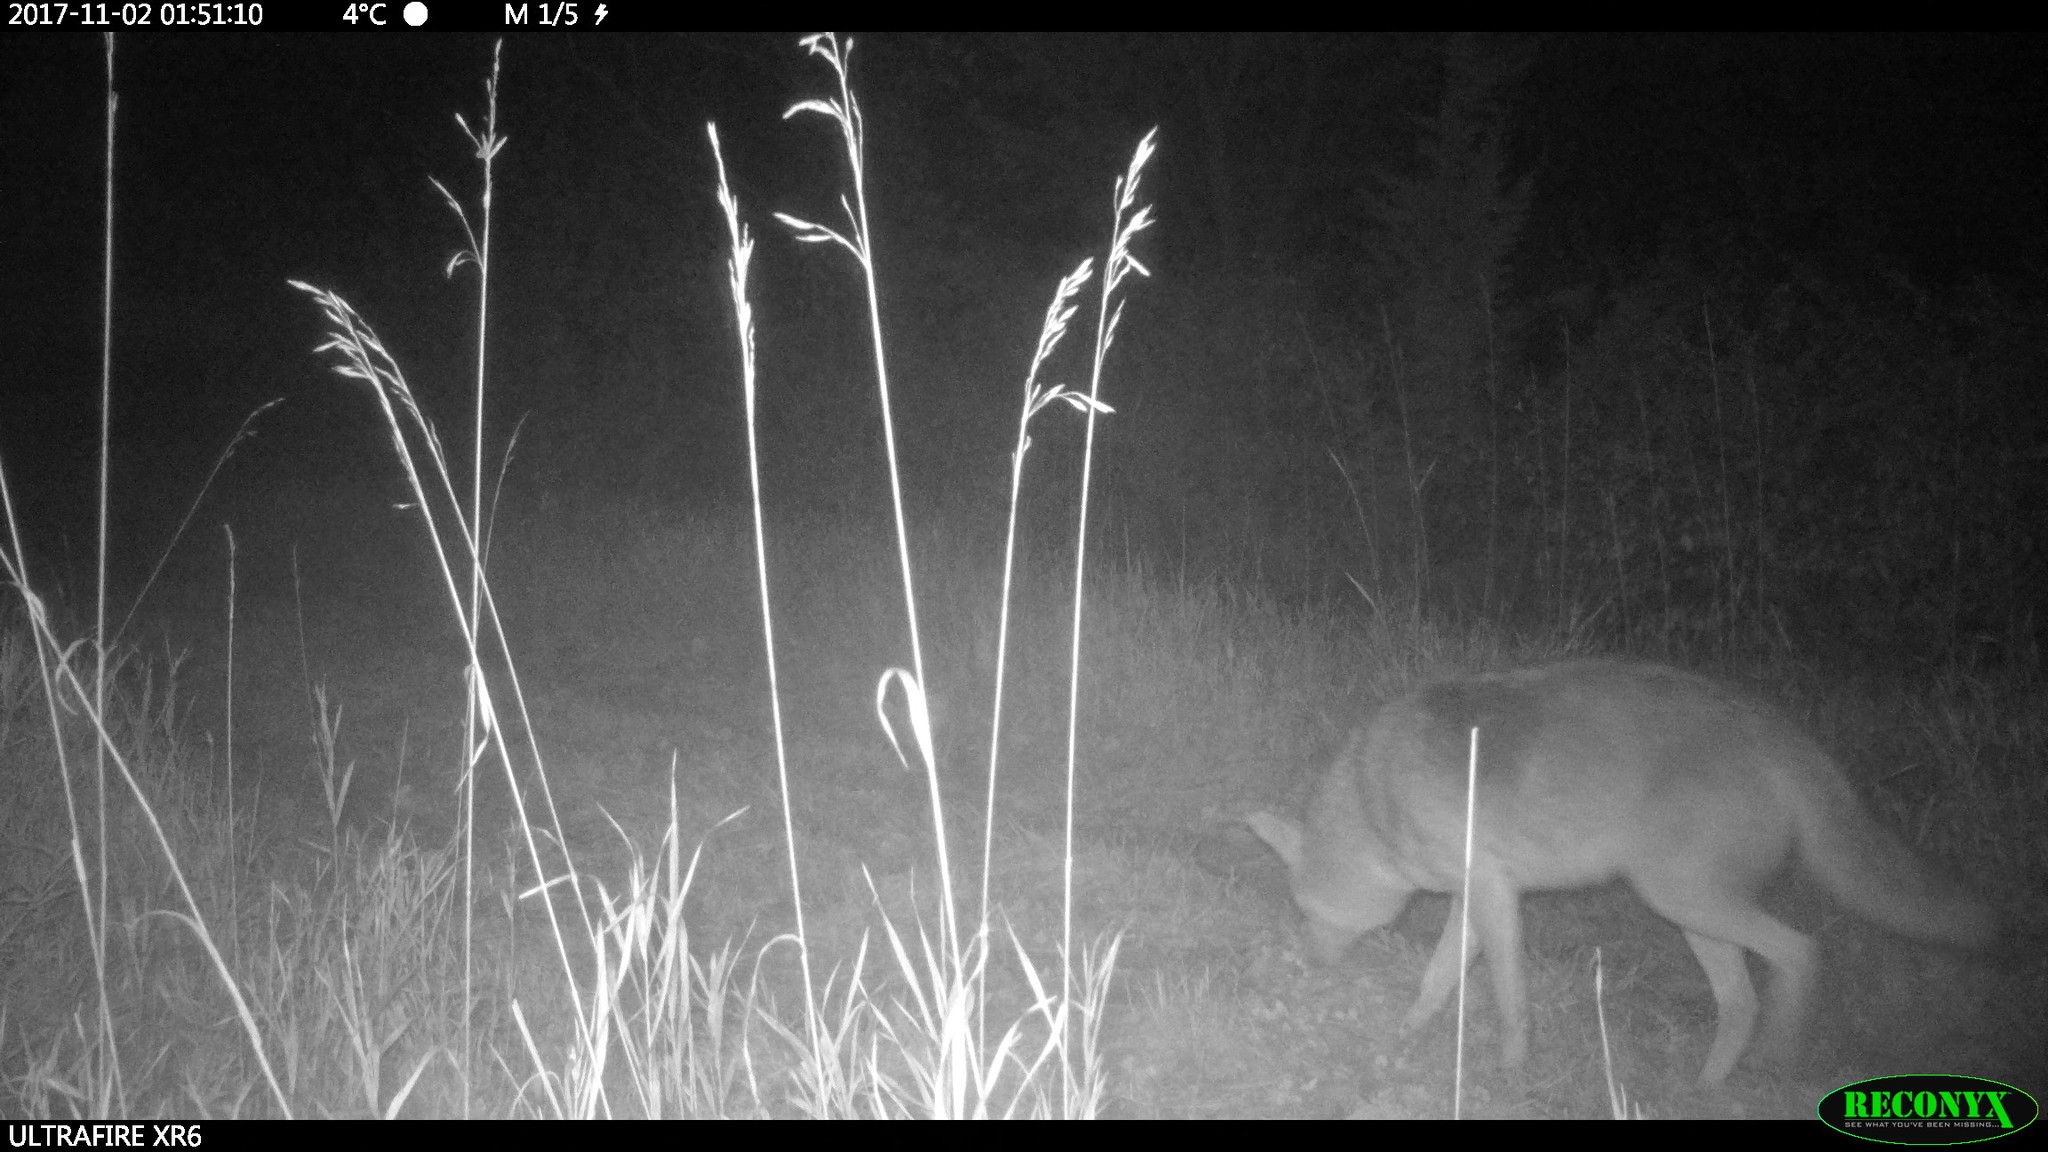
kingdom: Animalia
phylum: Chordata
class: Mammalia
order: Carnivora
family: Canidae
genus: Canis
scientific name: Canis latrans
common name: Coyote
